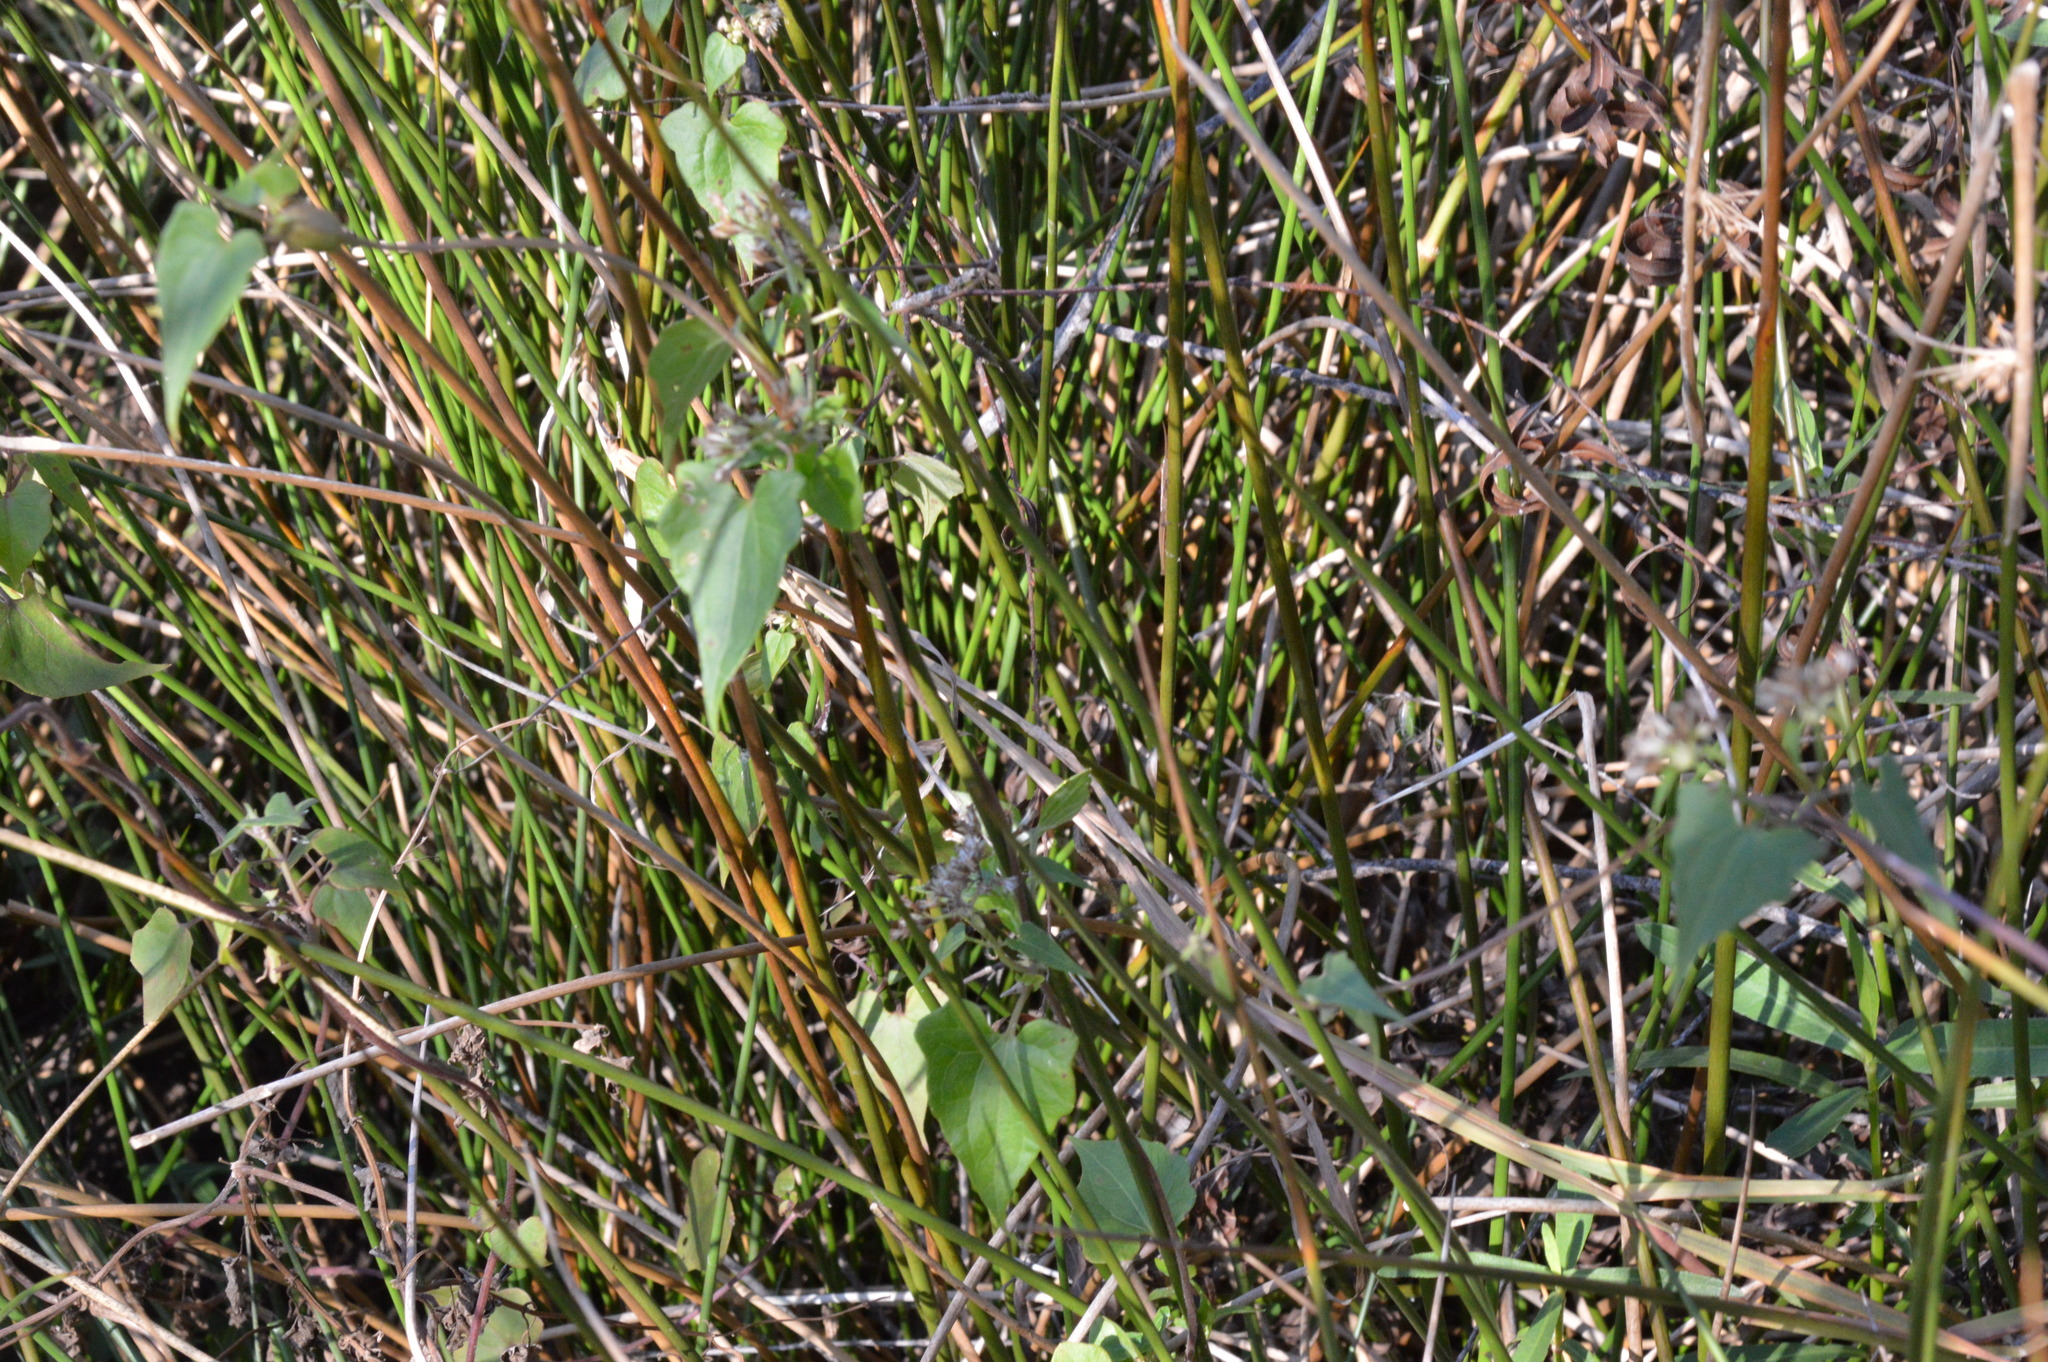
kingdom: Plantae
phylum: Tracheophyta
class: Magnoliopsida
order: Asterales
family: Asteraceae
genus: Mikania
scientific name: Mikania scandens
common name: Climbing hempvine
